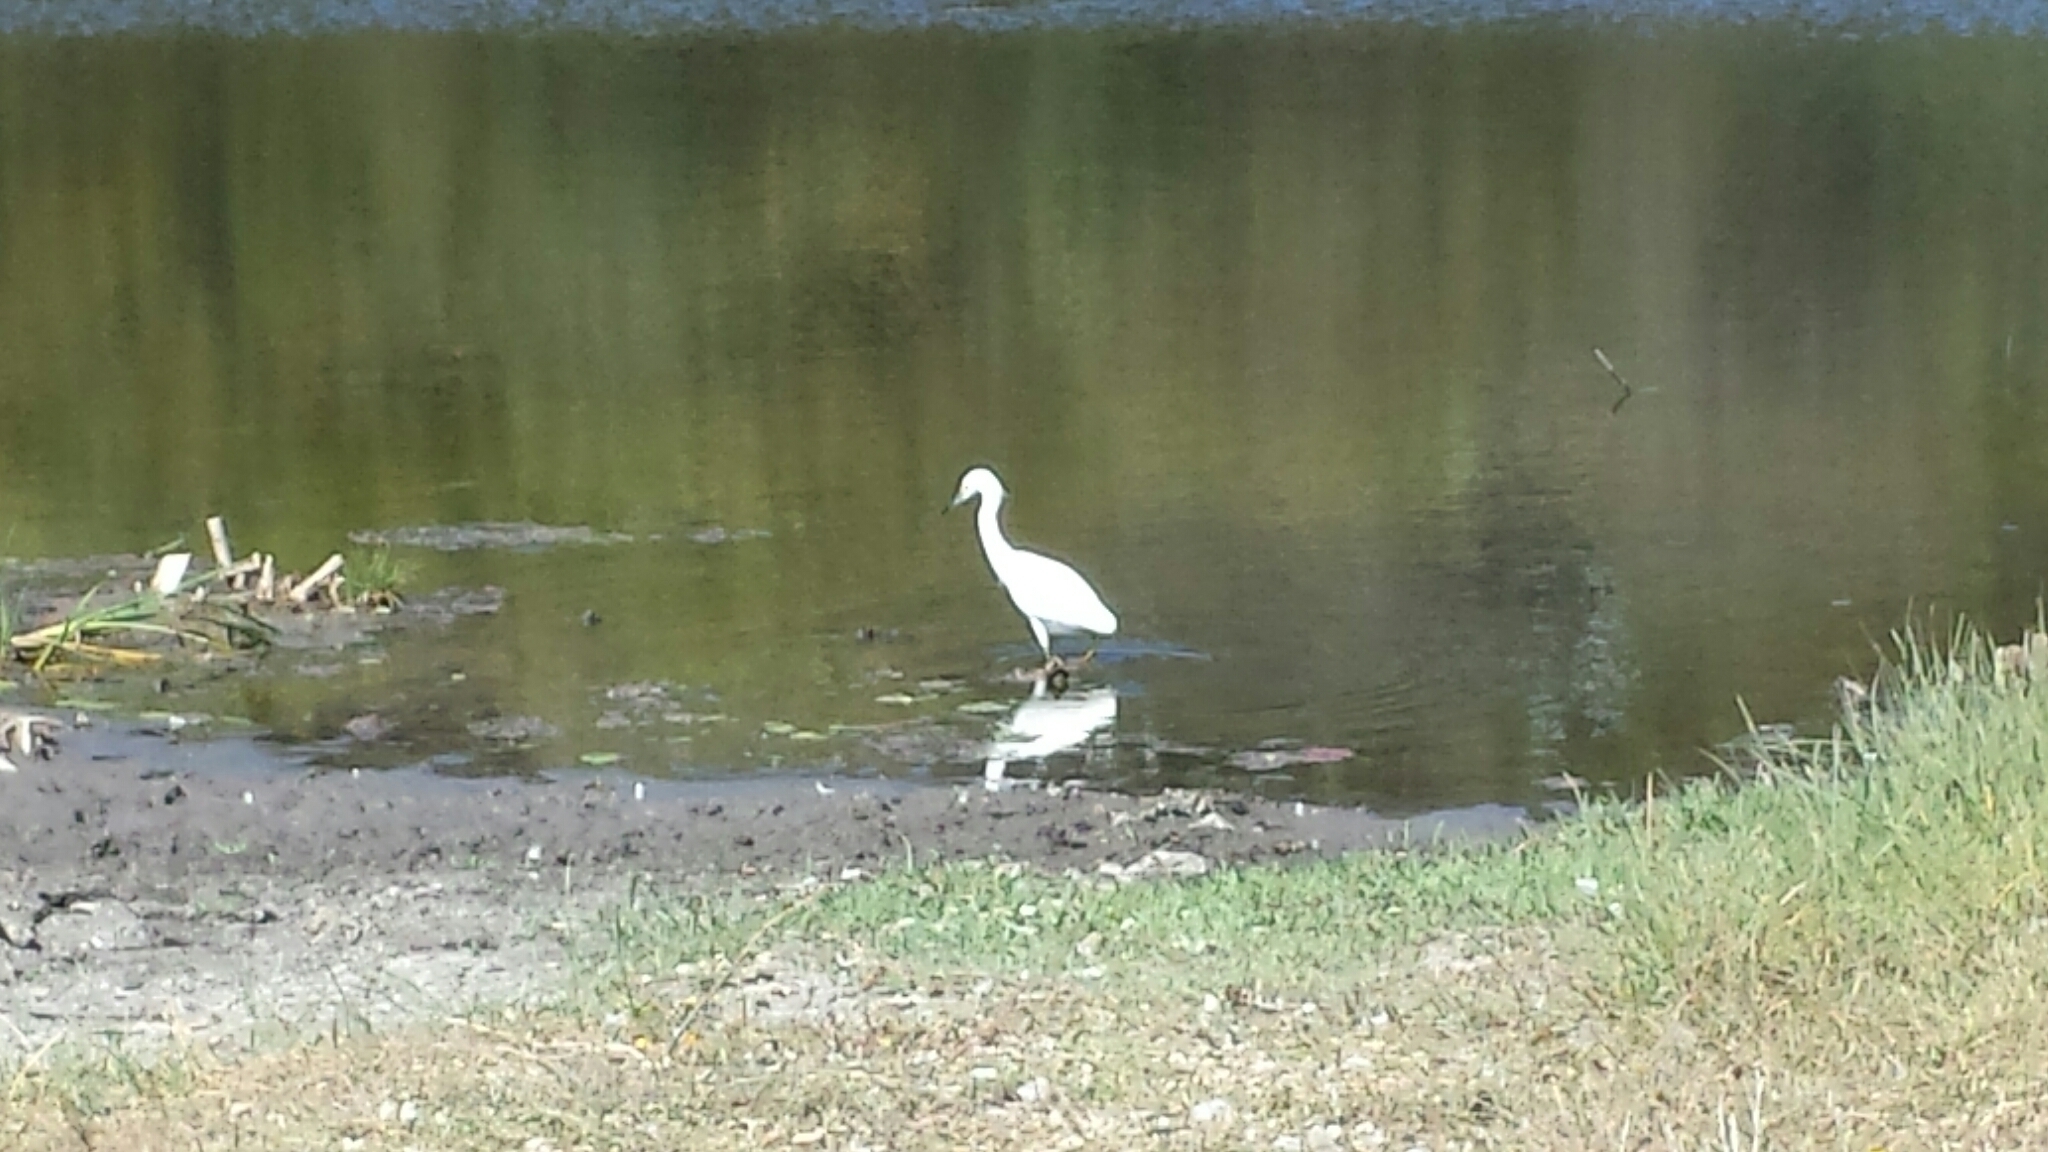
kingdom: Animalia
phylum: Chordata
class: Aves
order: Pelecaniformes
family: Ardeidae
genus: Egretta
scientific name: Egretta thula
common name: Snowy egret
